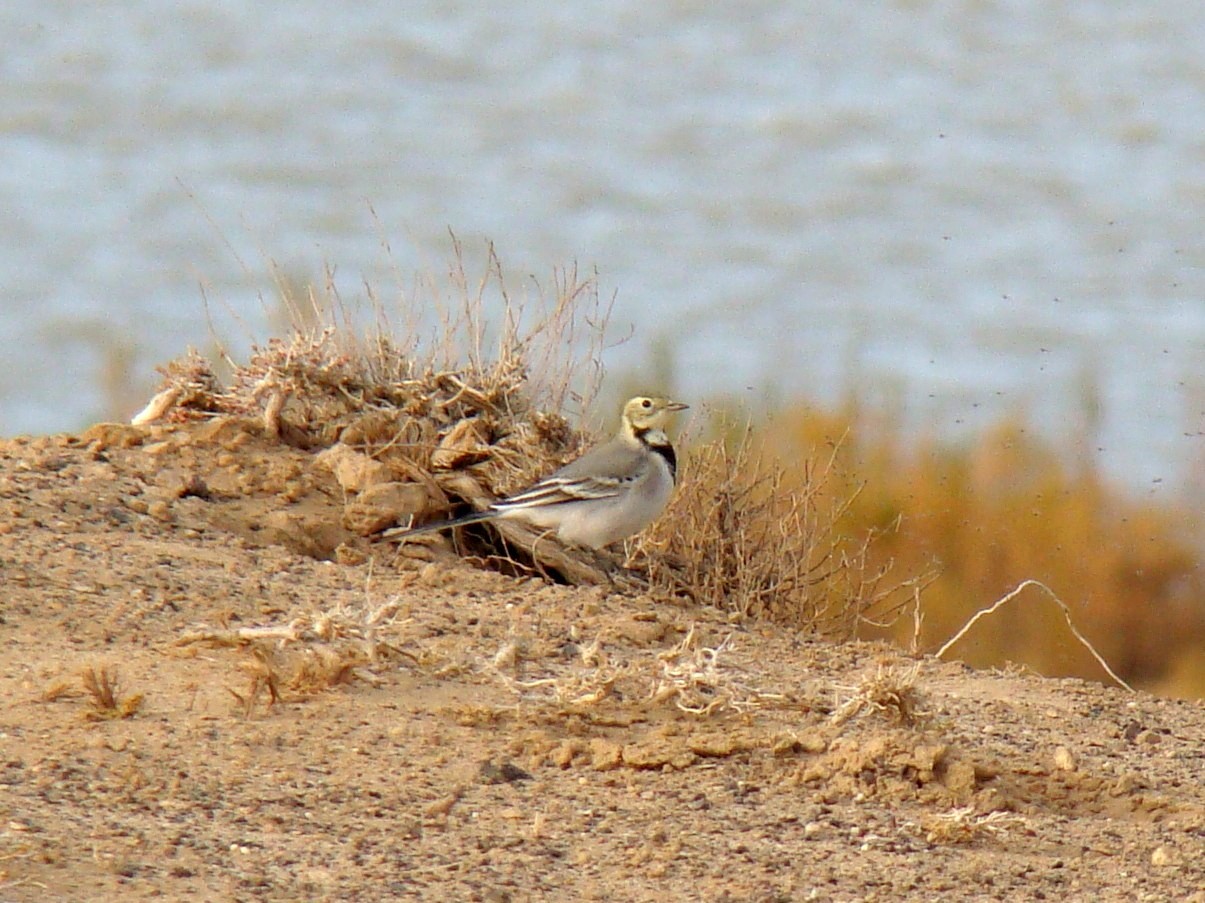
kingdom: Animalia
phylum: Chordata
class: Aves
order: Passeriformes
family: Motacillidae
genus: Motacilla
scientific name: Motacilla alba
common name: White wagtail
